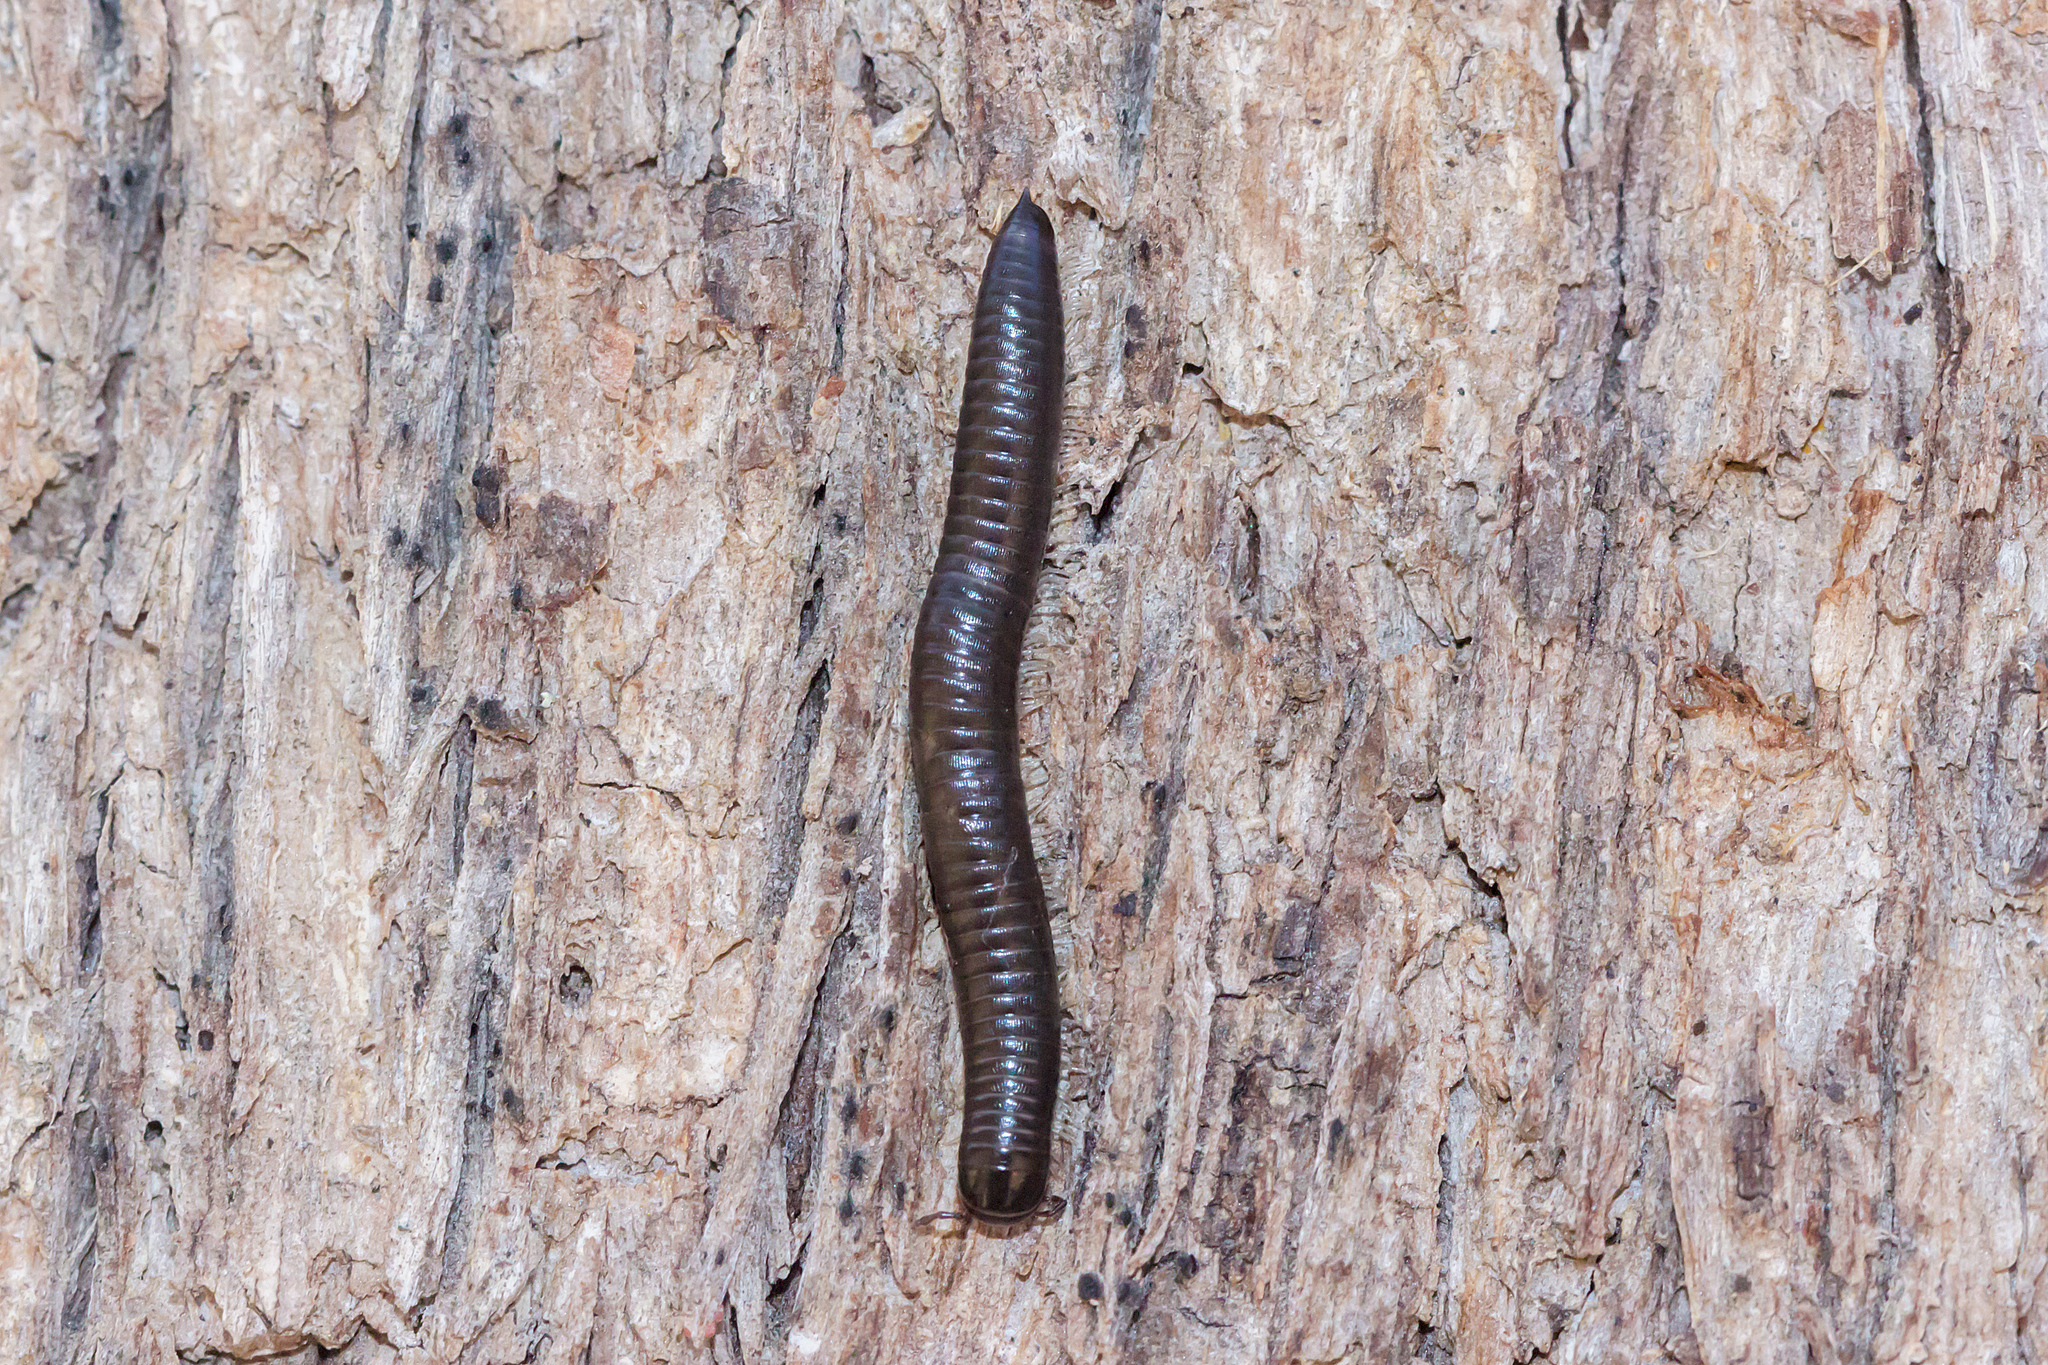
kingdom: Animalia
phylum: Arthropoda
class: Diplopoda
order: Julida
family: Julidae
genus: Ommatoiulus
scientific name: Ommatoiulus moreleti
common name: Portuguese millipede
